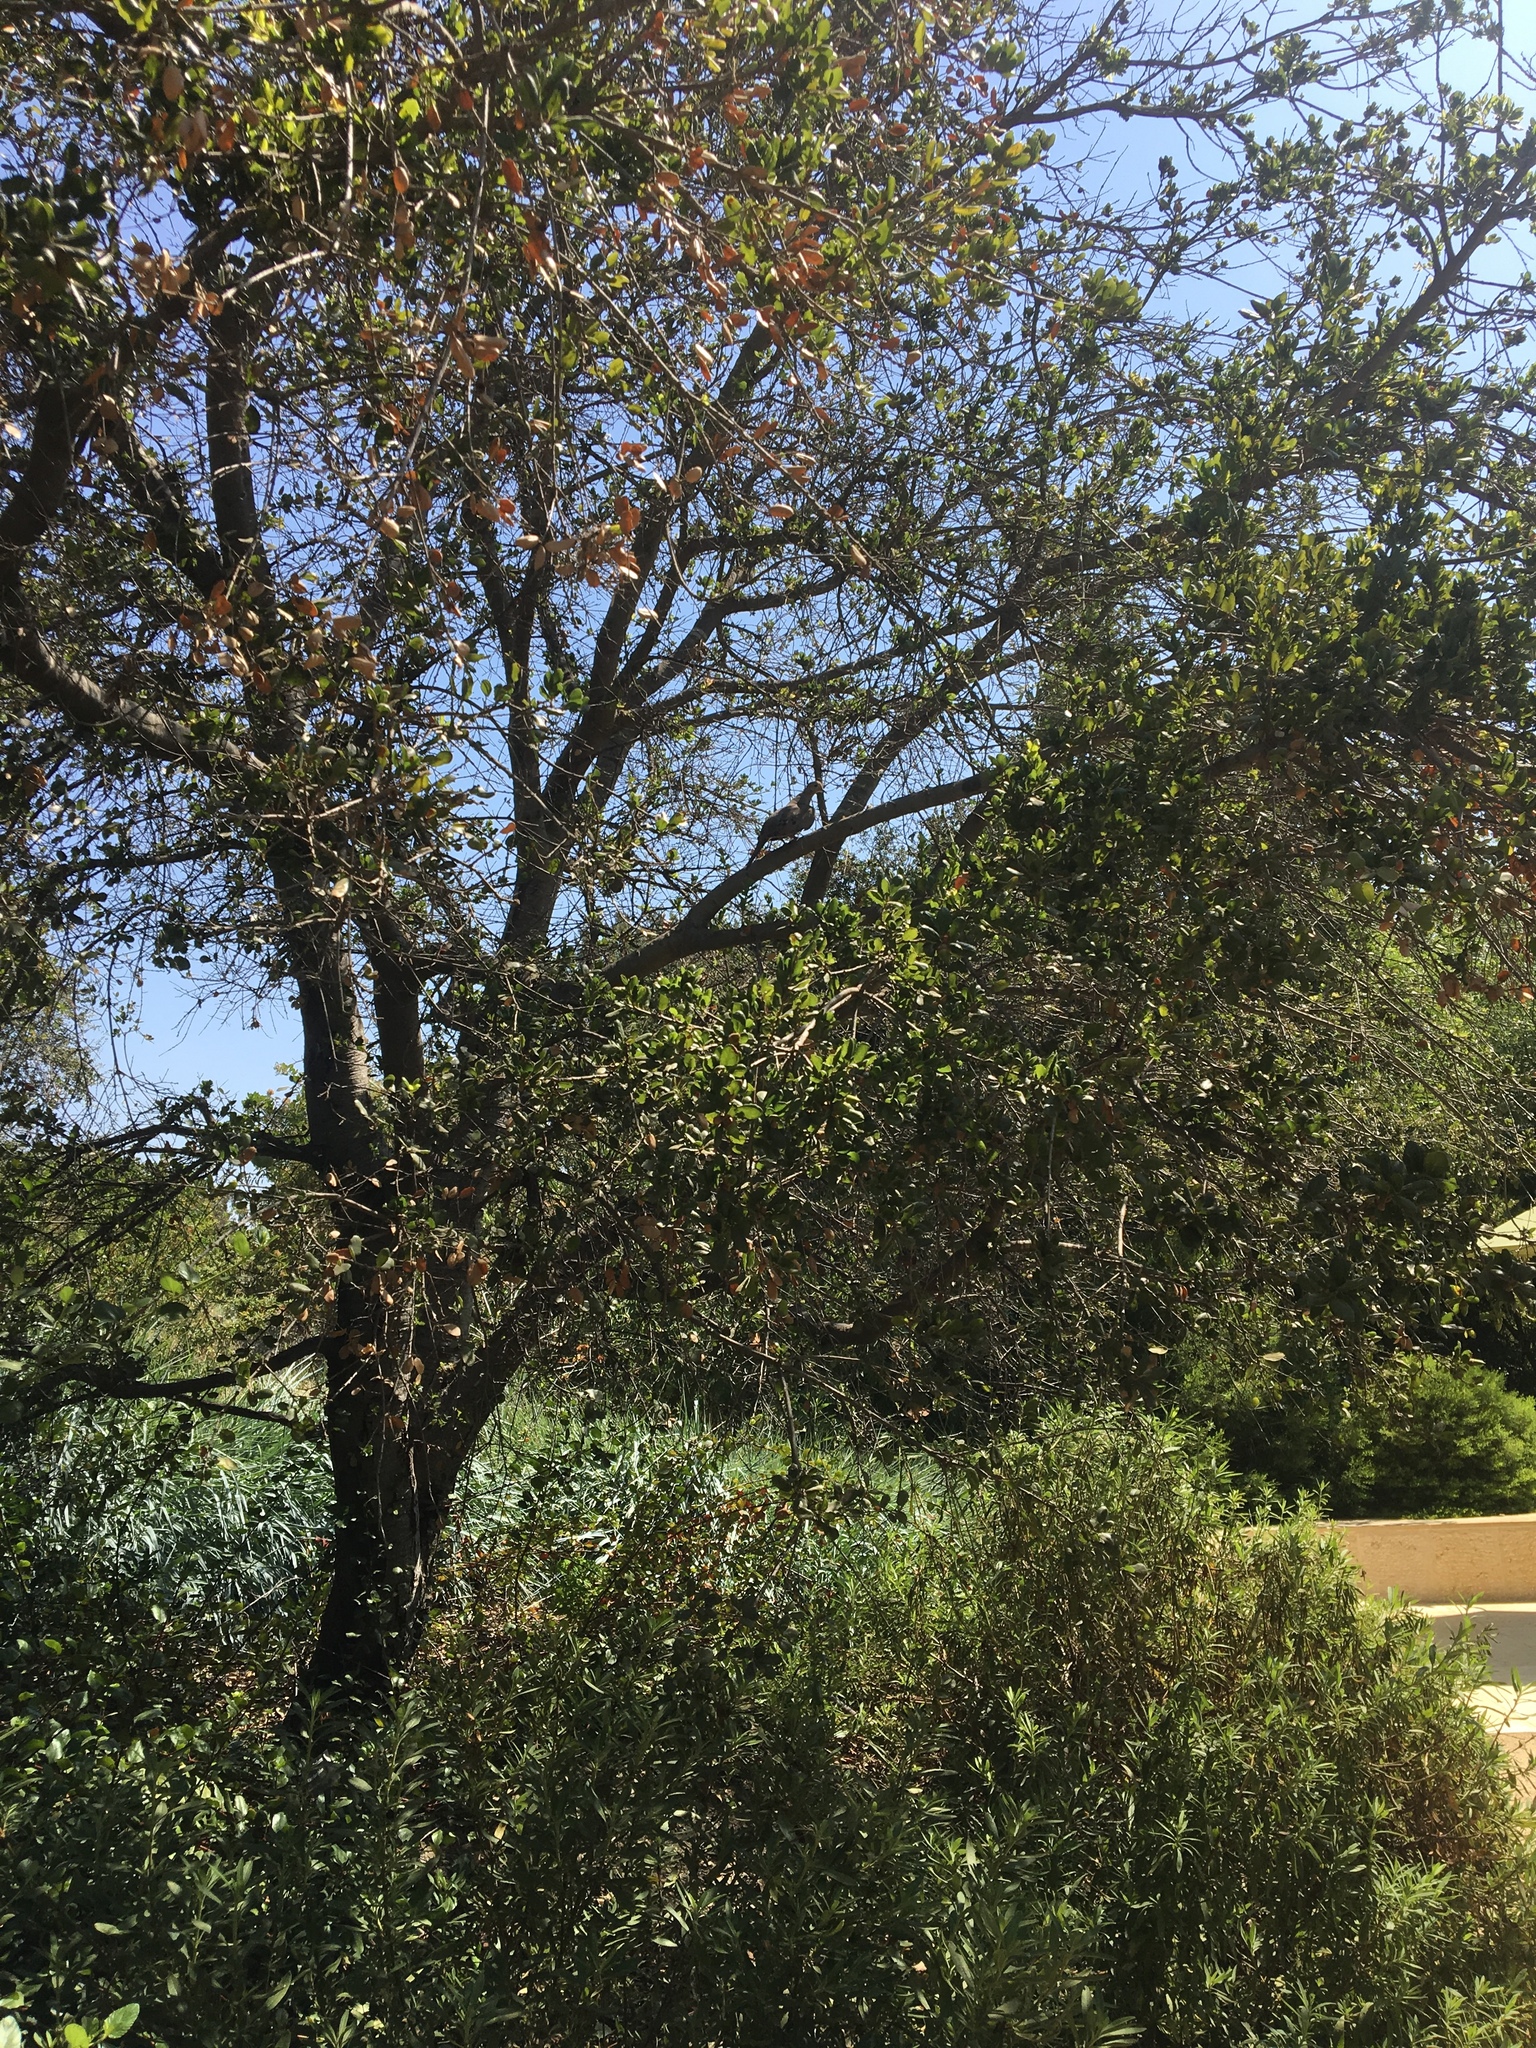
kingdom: Animalia
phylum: Chordata
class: Aves
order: Columbiformes
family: Columbidae
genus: Zenaida
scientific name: Zenaida macroura
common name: Mourning dove
